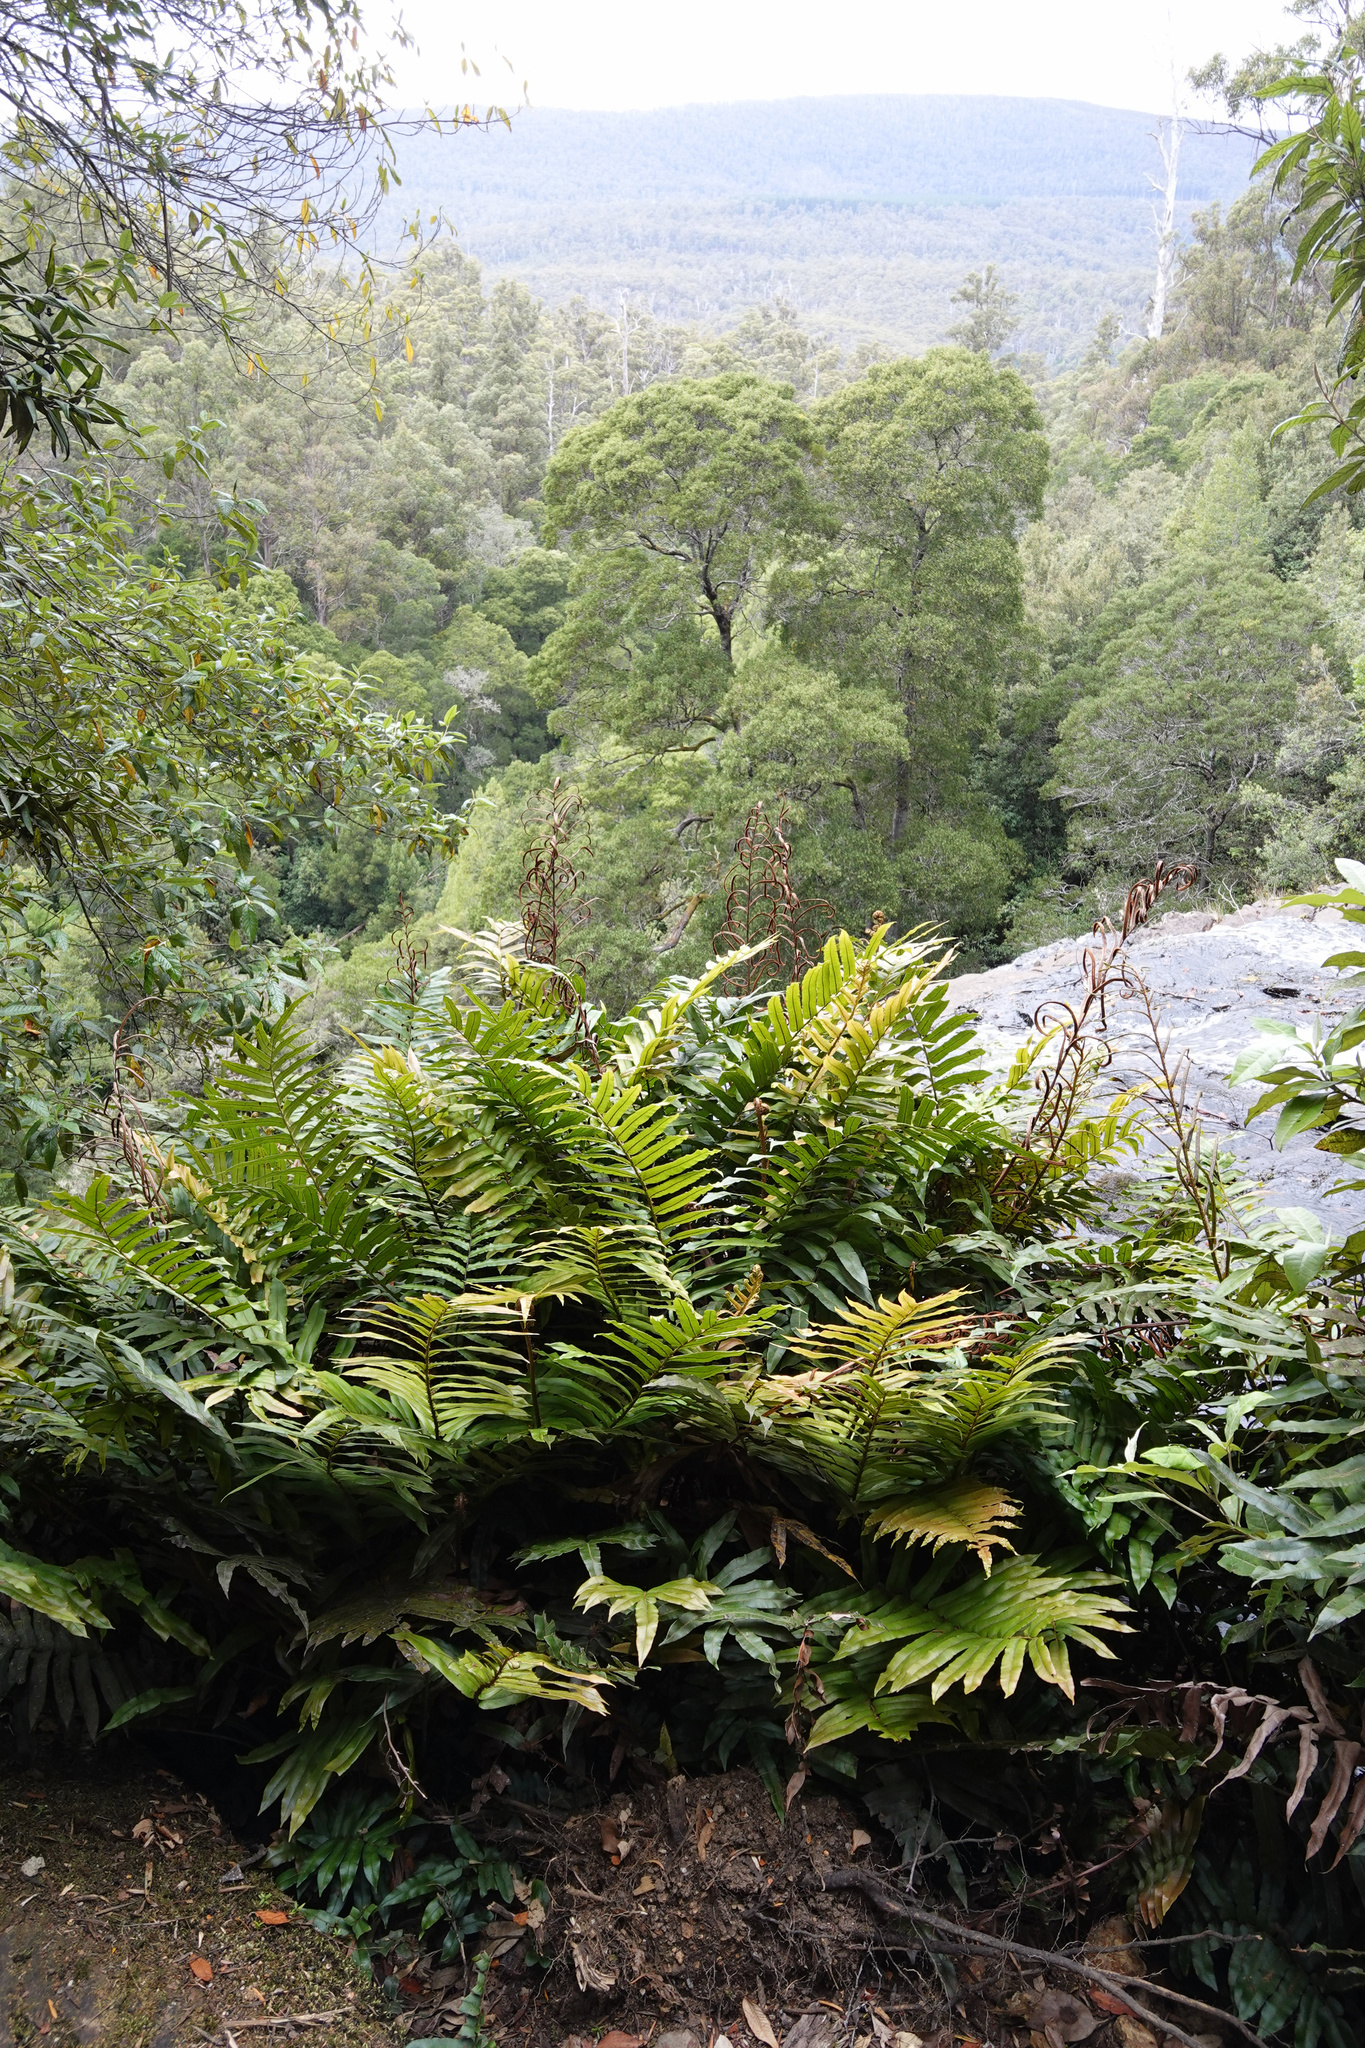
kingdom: Plantae
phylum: Tracheophyta
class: Polypodiopsida
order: Polypodiales
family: Blechnaceae
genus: Parablechnum
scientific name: Parablechnum wattsii
